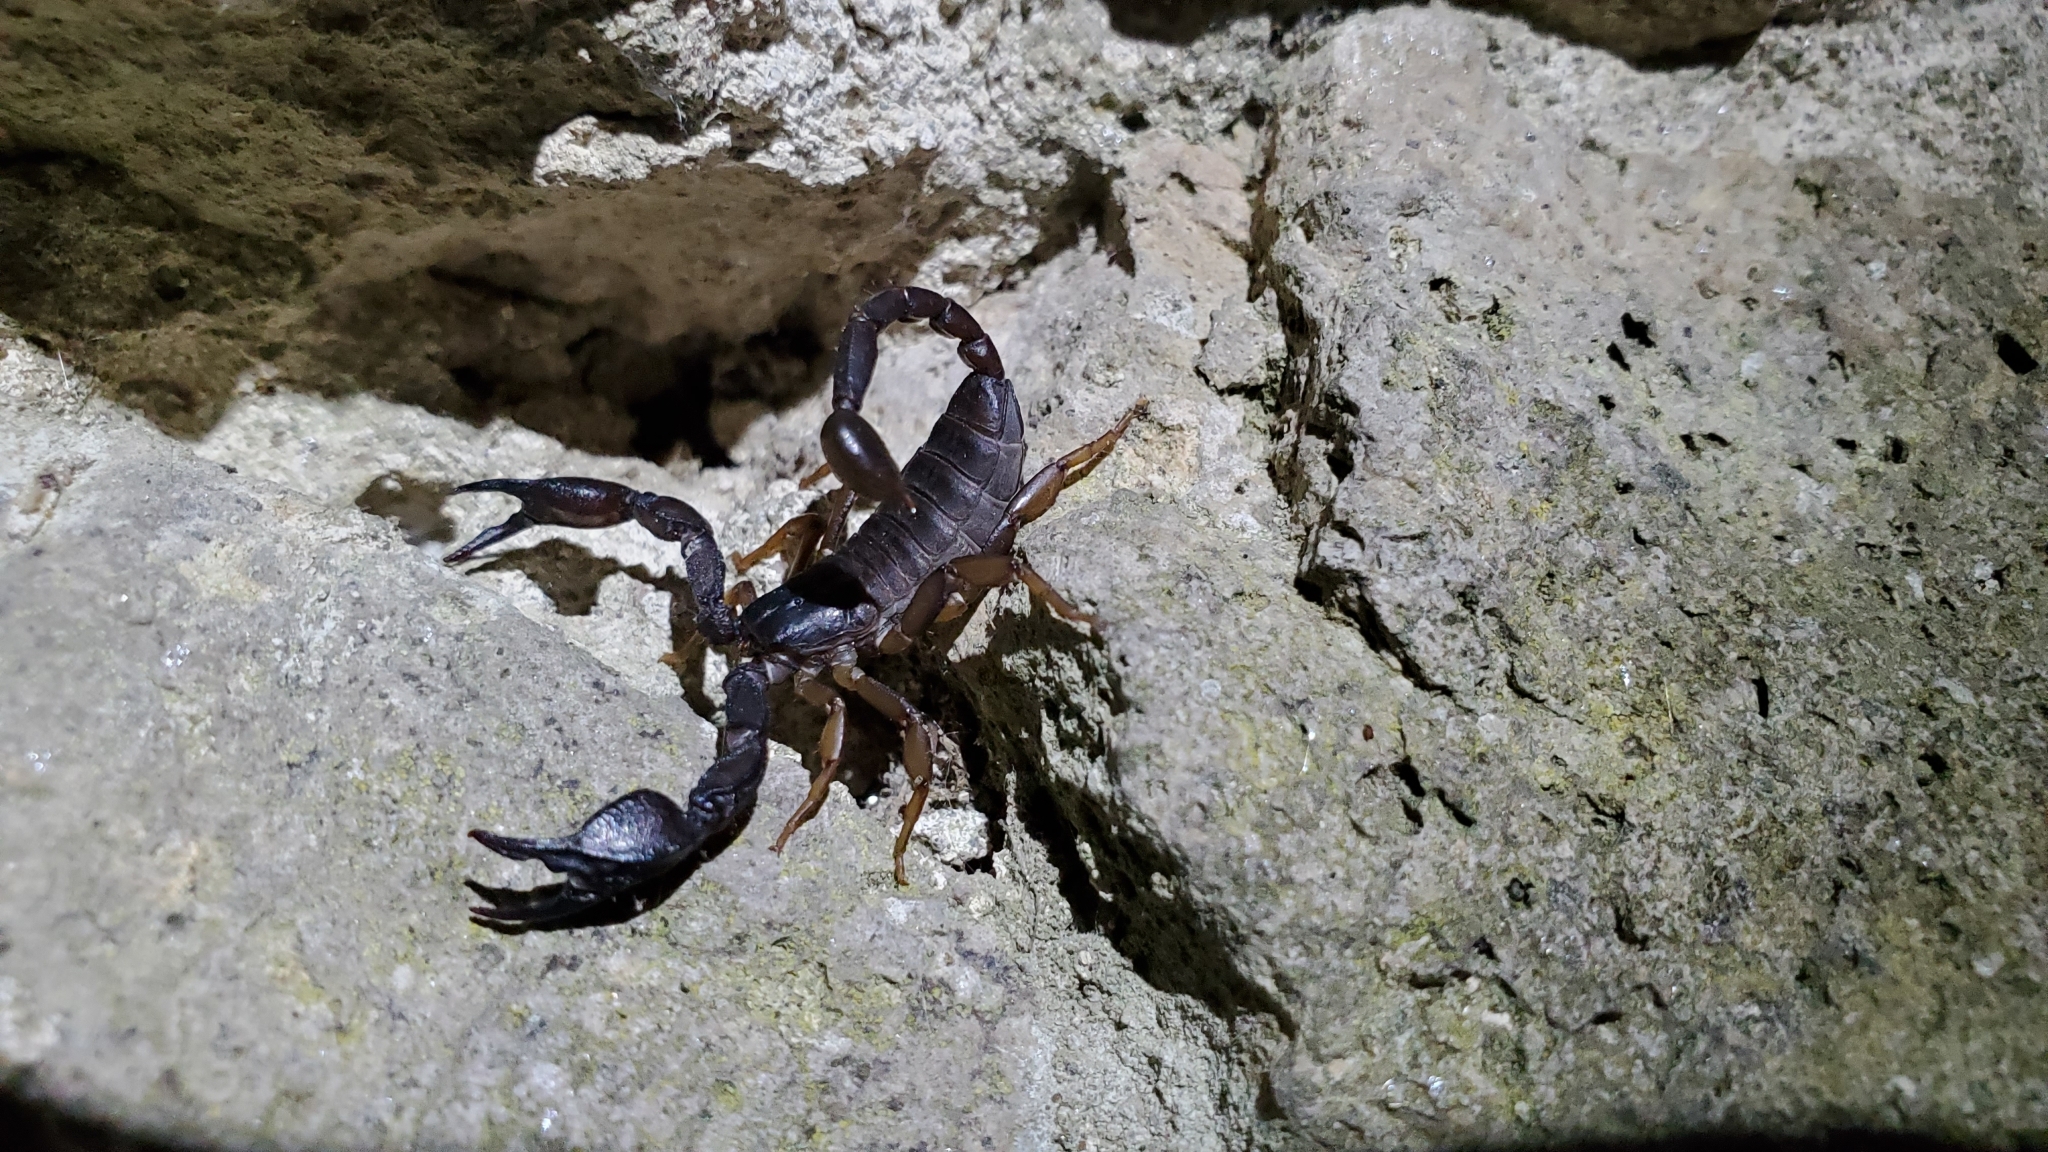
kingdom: Animalia
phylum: Arthropoda
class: Arachnida
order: Scorpiones
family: Euscorpiidae
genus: Euscorpius
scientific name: Euscorpius italicus
